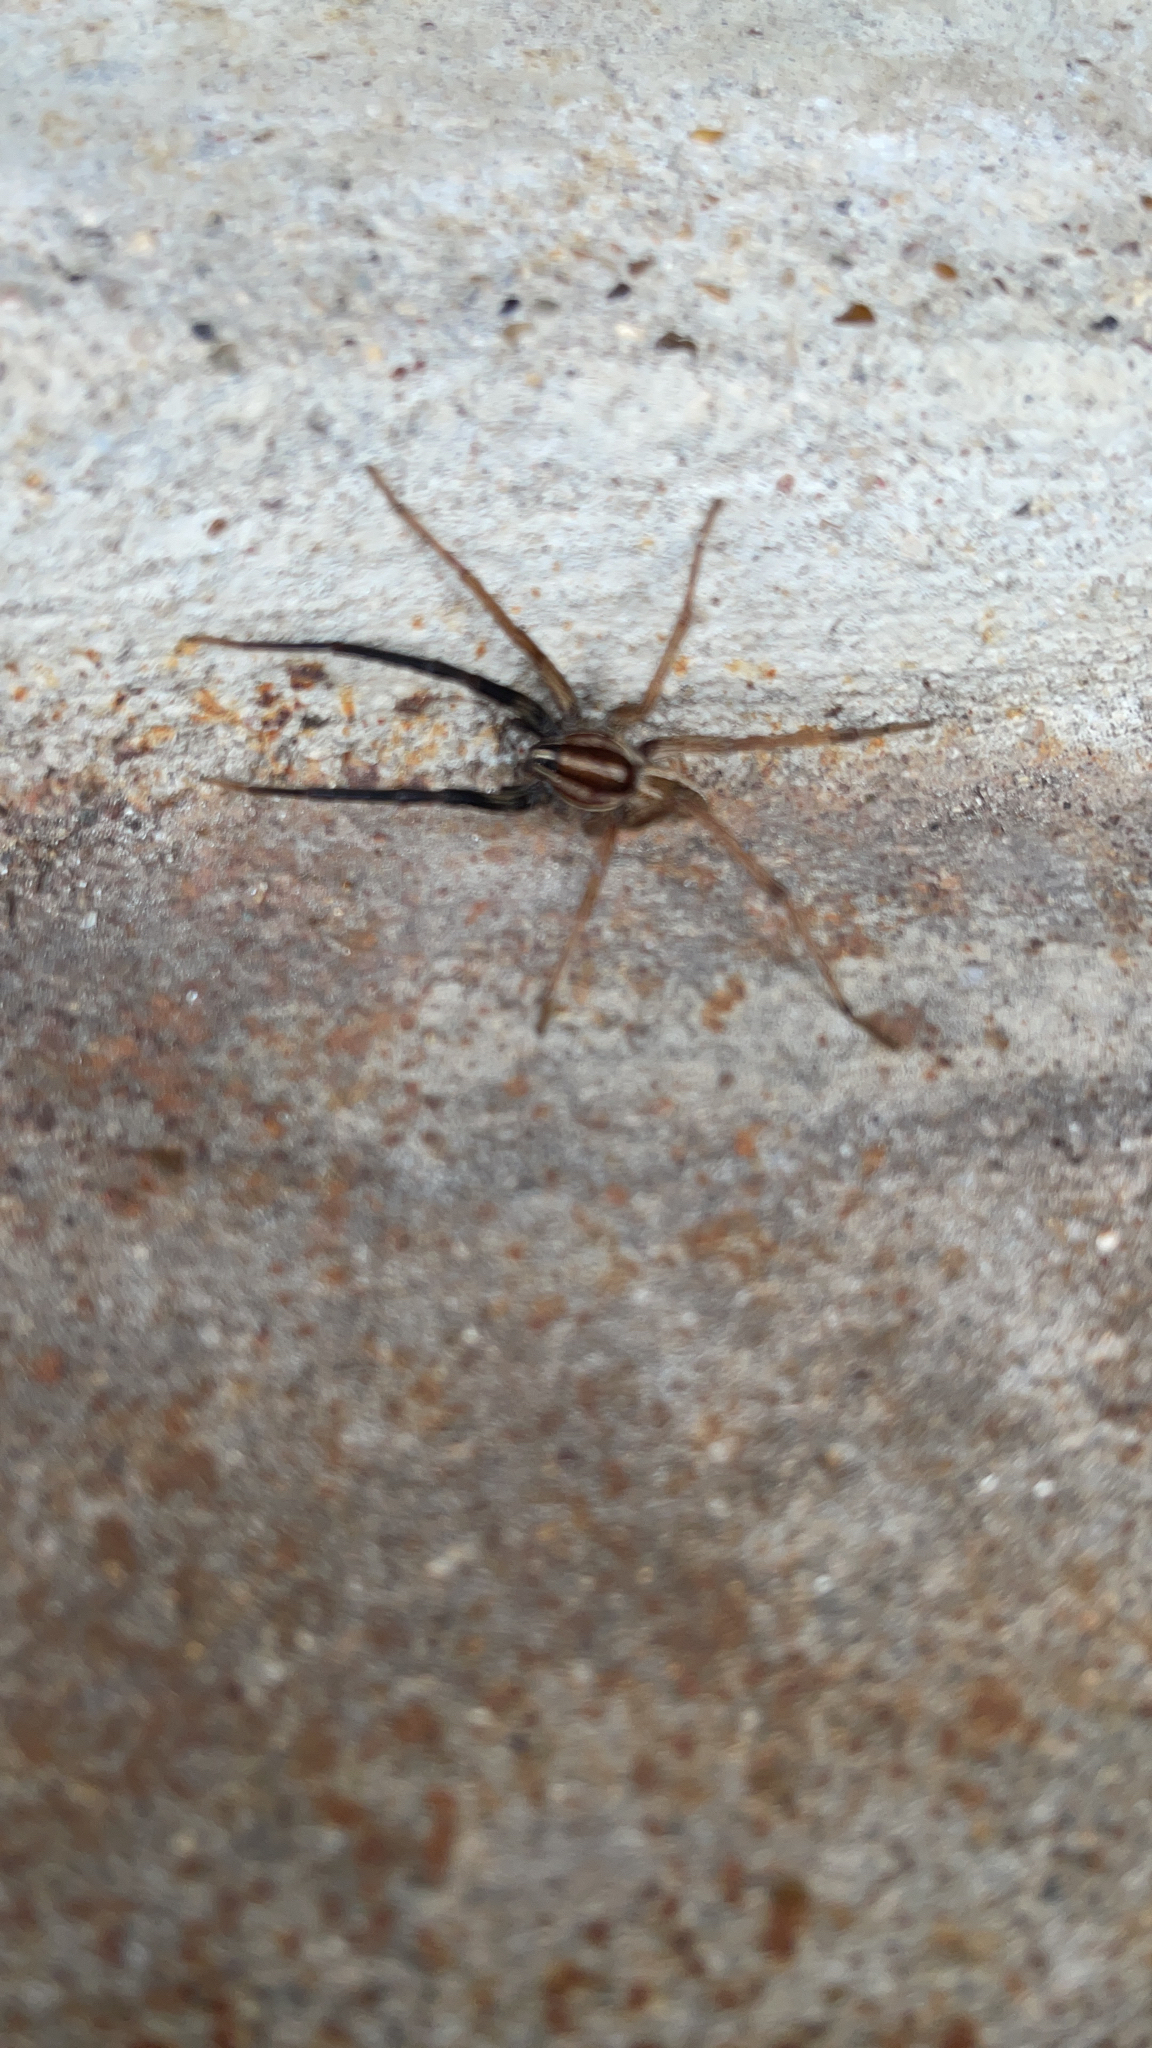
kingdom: Animalia
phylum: Arthropoda
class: Arachnida
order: Araneae
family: Lycosidae
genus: Rabidosa
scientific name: Rabidosa rabida
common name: Rabid wolf spider
